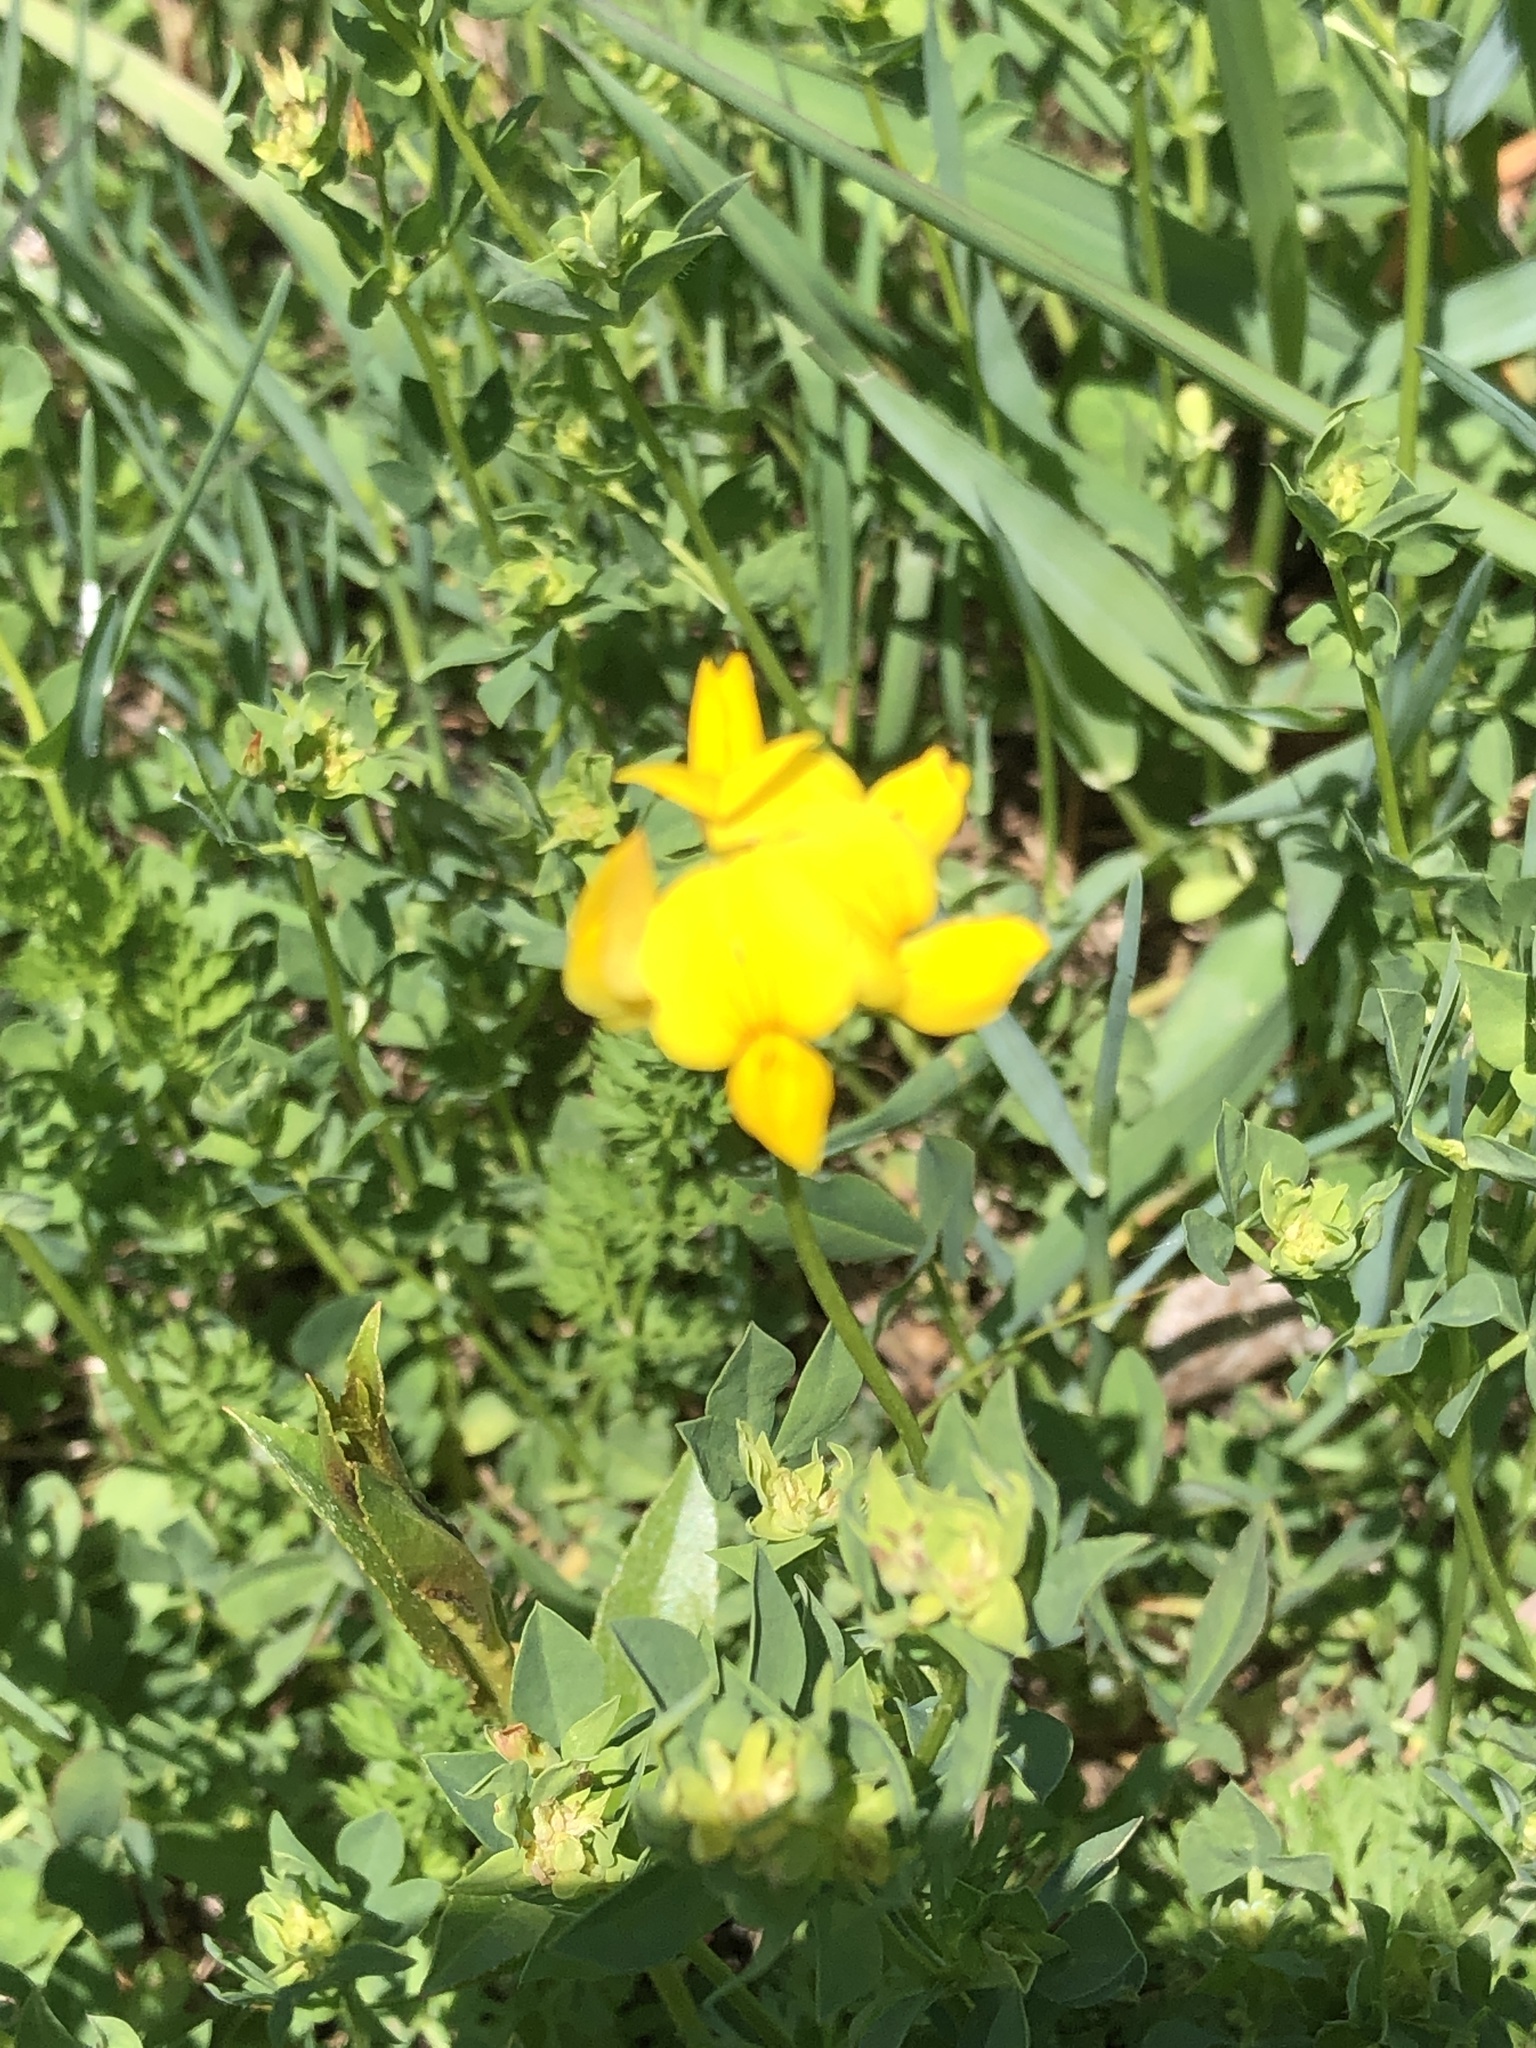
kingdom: Plantae
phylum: Tracheophyta
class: Magnoliopsida
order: Fabales
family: Fabaceae
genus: Lotus
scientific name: Lotus corniculatus
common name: Common bird's-foot-trefoil
